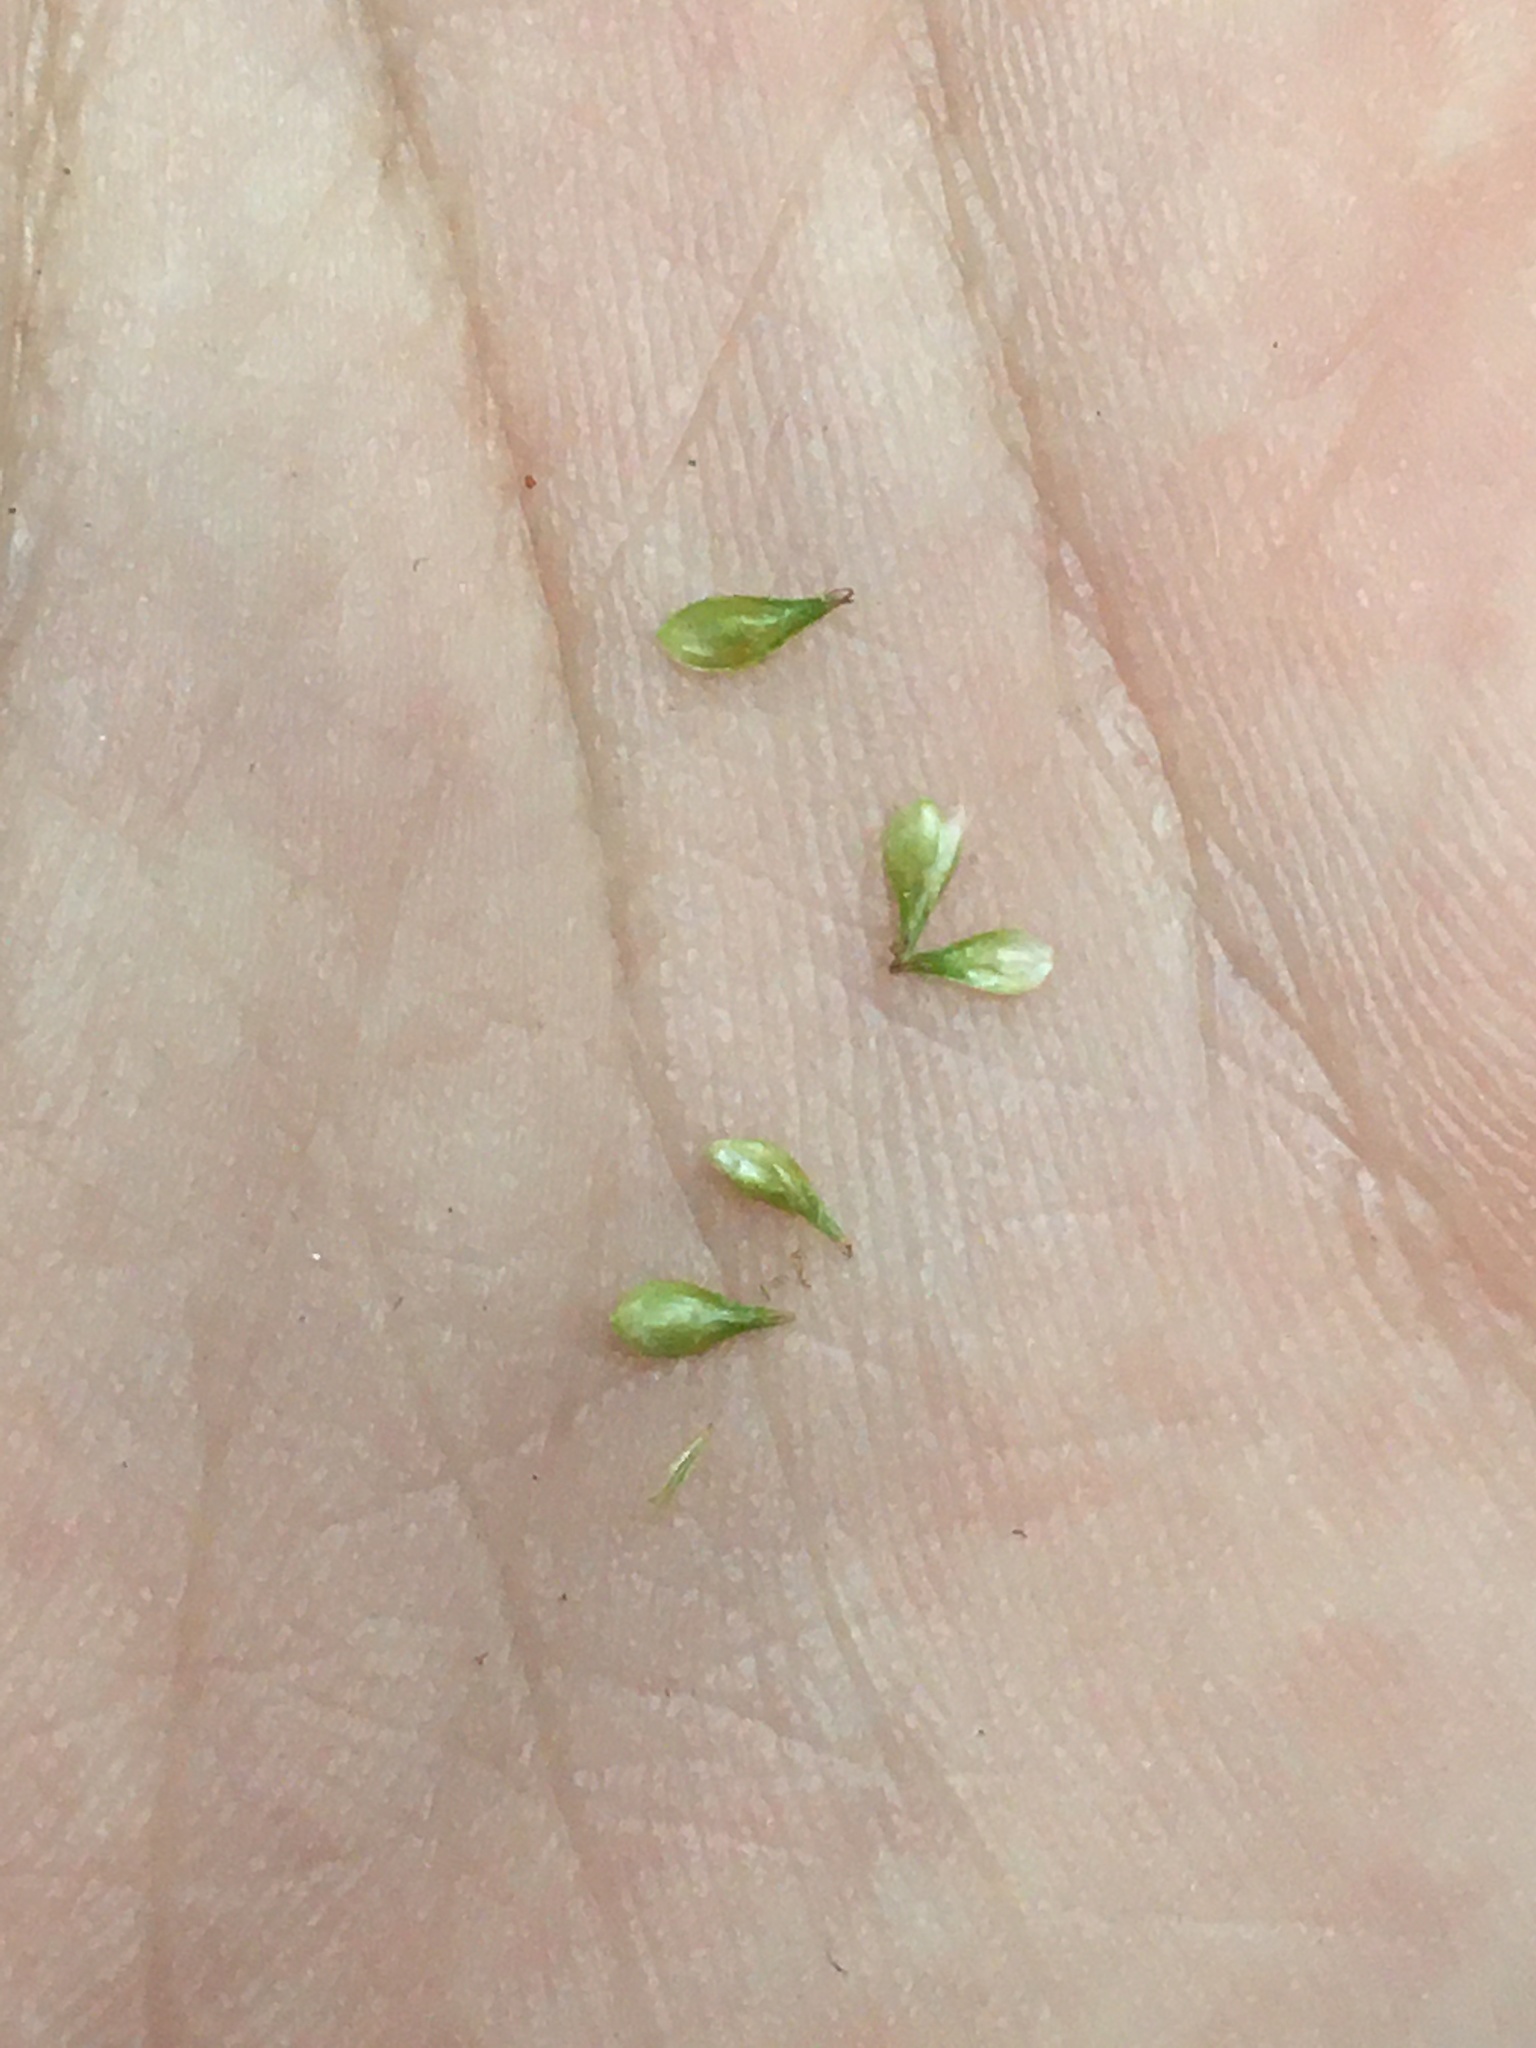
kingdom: Plantae
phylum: Tracheophyta
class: Liliopsida
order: Poales
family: Cyperaceae
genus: Carex
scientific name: Carex normalis
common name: Greater straw sedge
